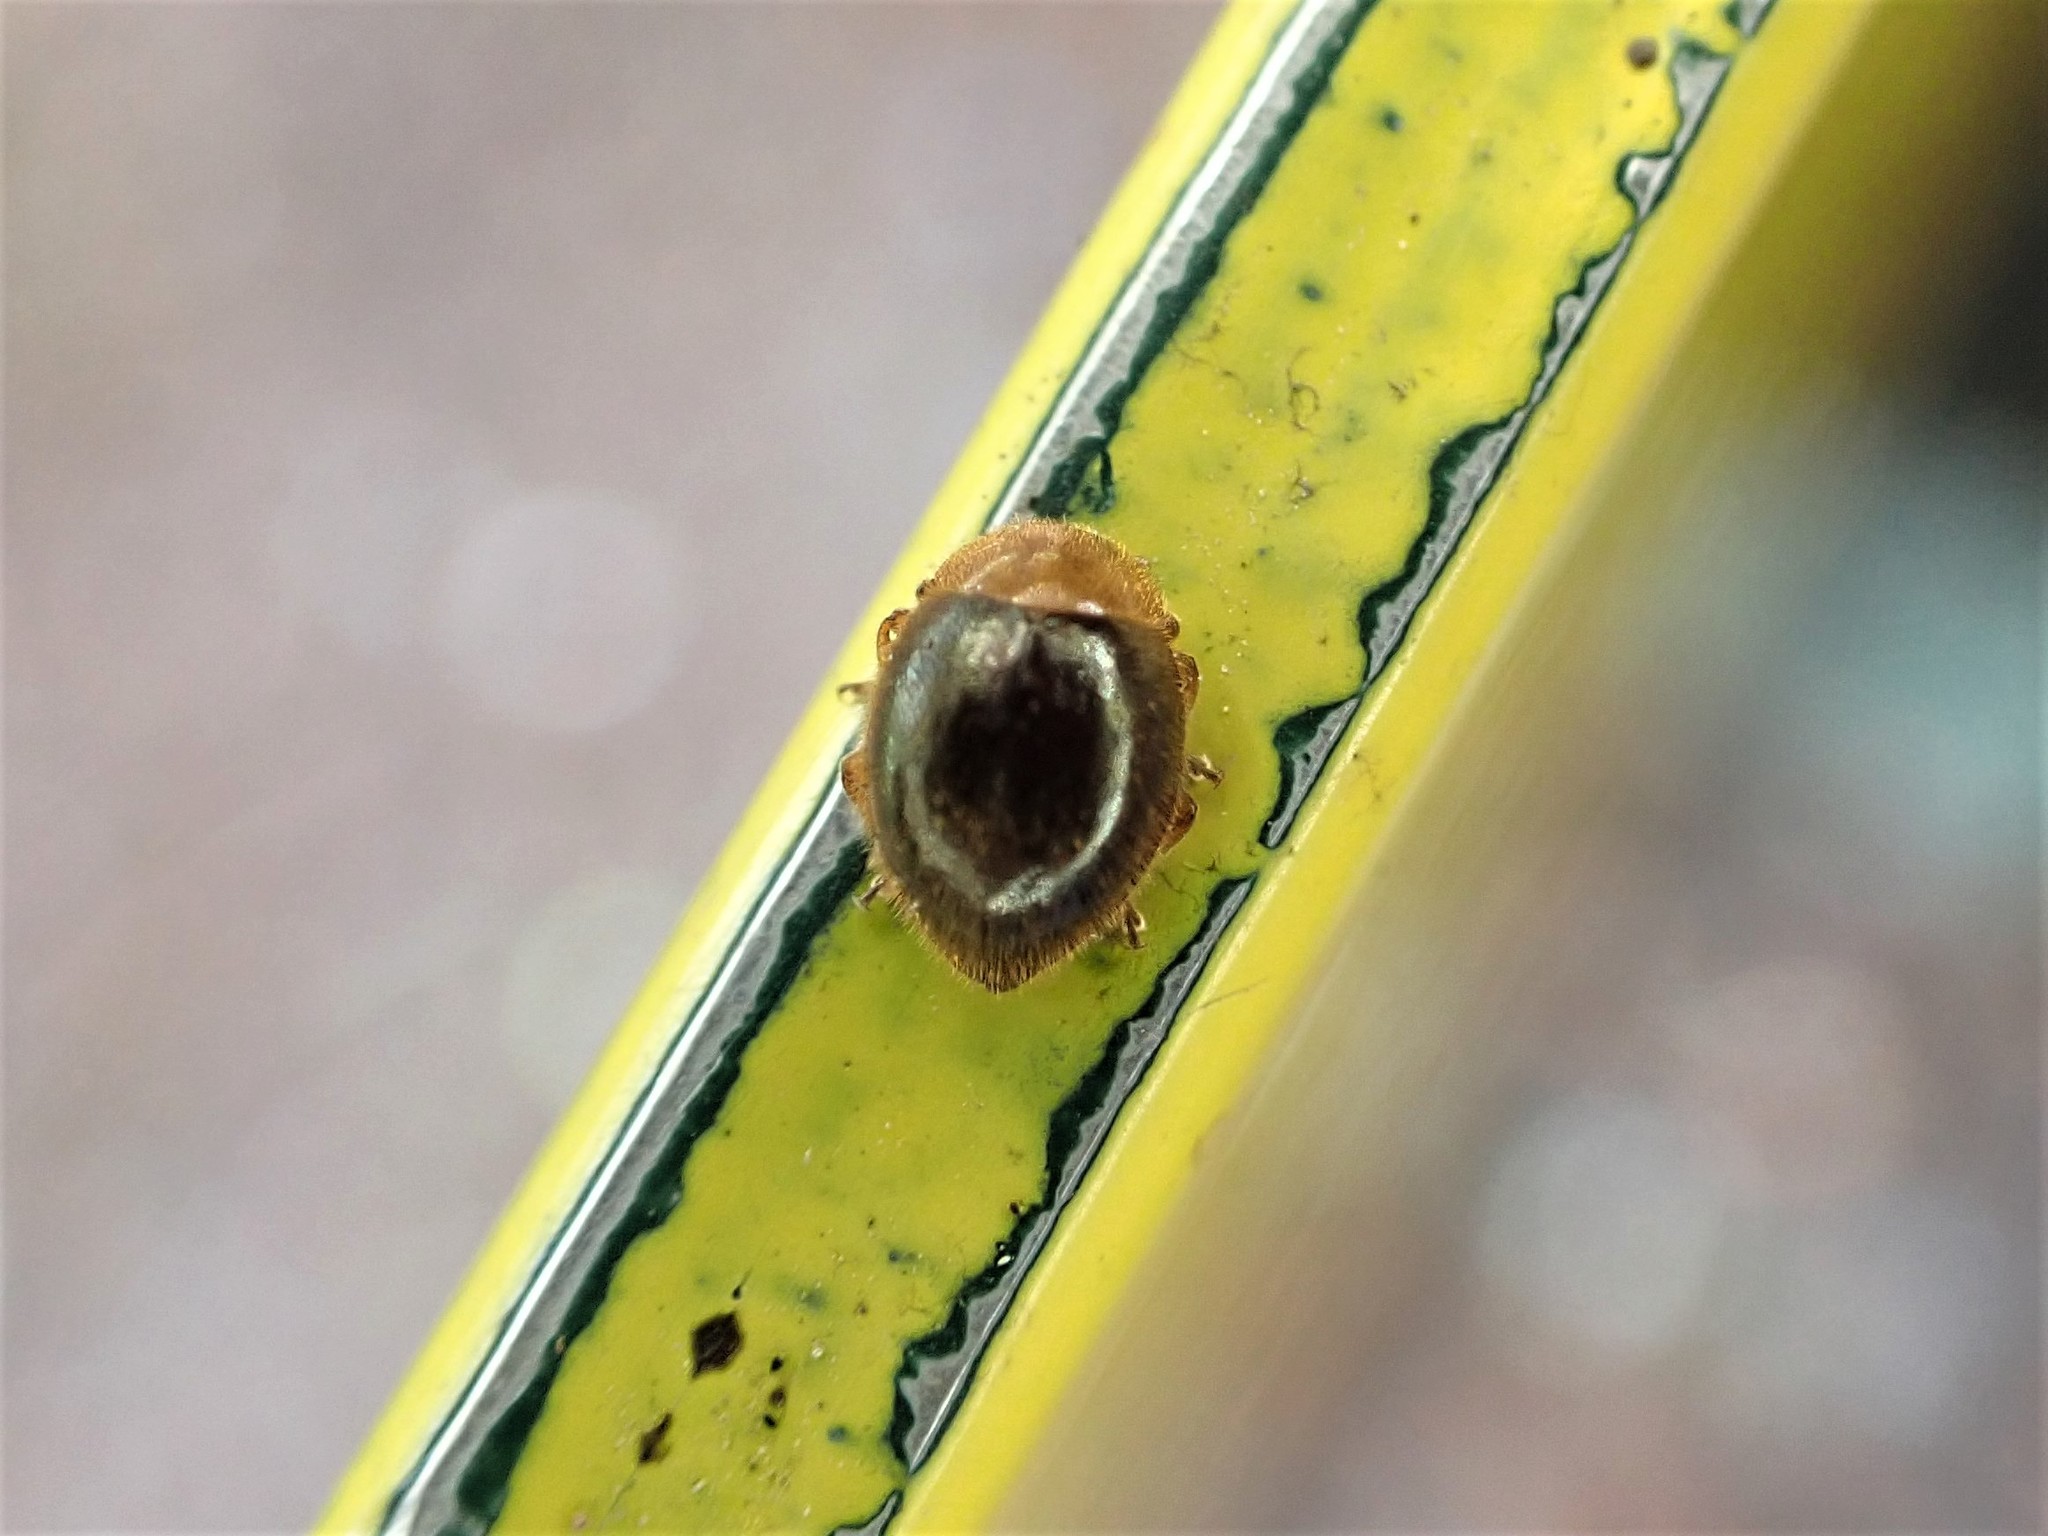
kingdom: Animalia
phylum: Arthropoda
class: Insecta
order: Coleoptera
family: Coccinellidae
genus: Adoxellus
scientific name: Adoxellus
